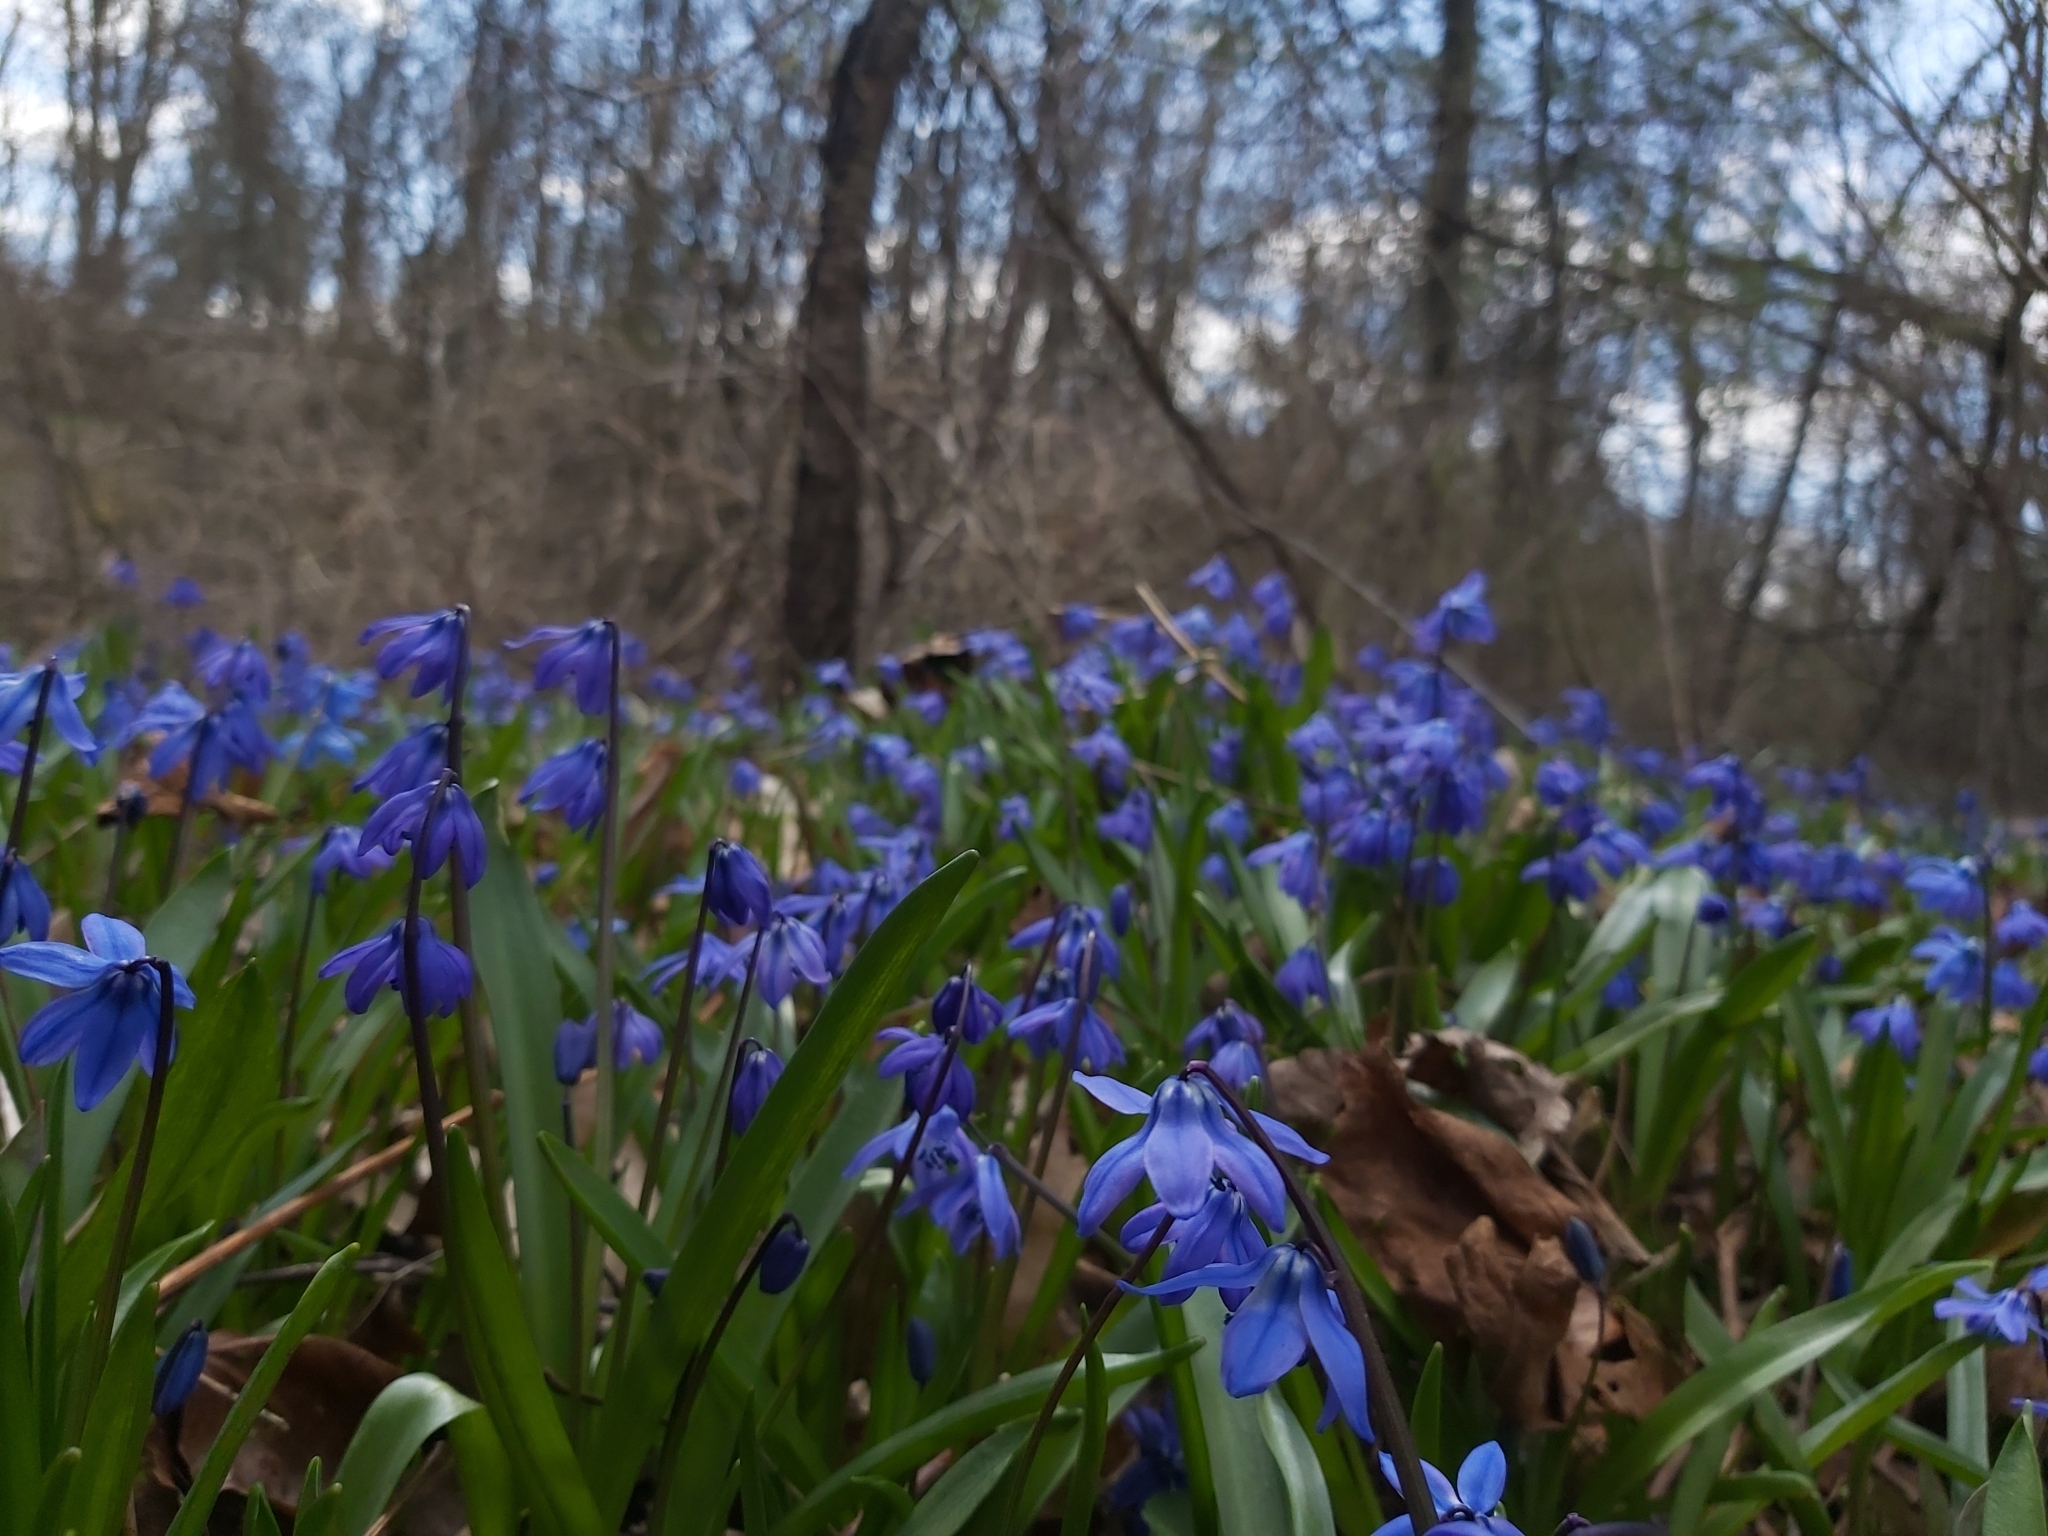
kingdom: Plantae
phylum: Tracheophyta
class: Liliopsida
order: Asparagales
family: Asparagaceae
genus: Scilla
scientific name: Scilla siberica
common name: Siberian squill
